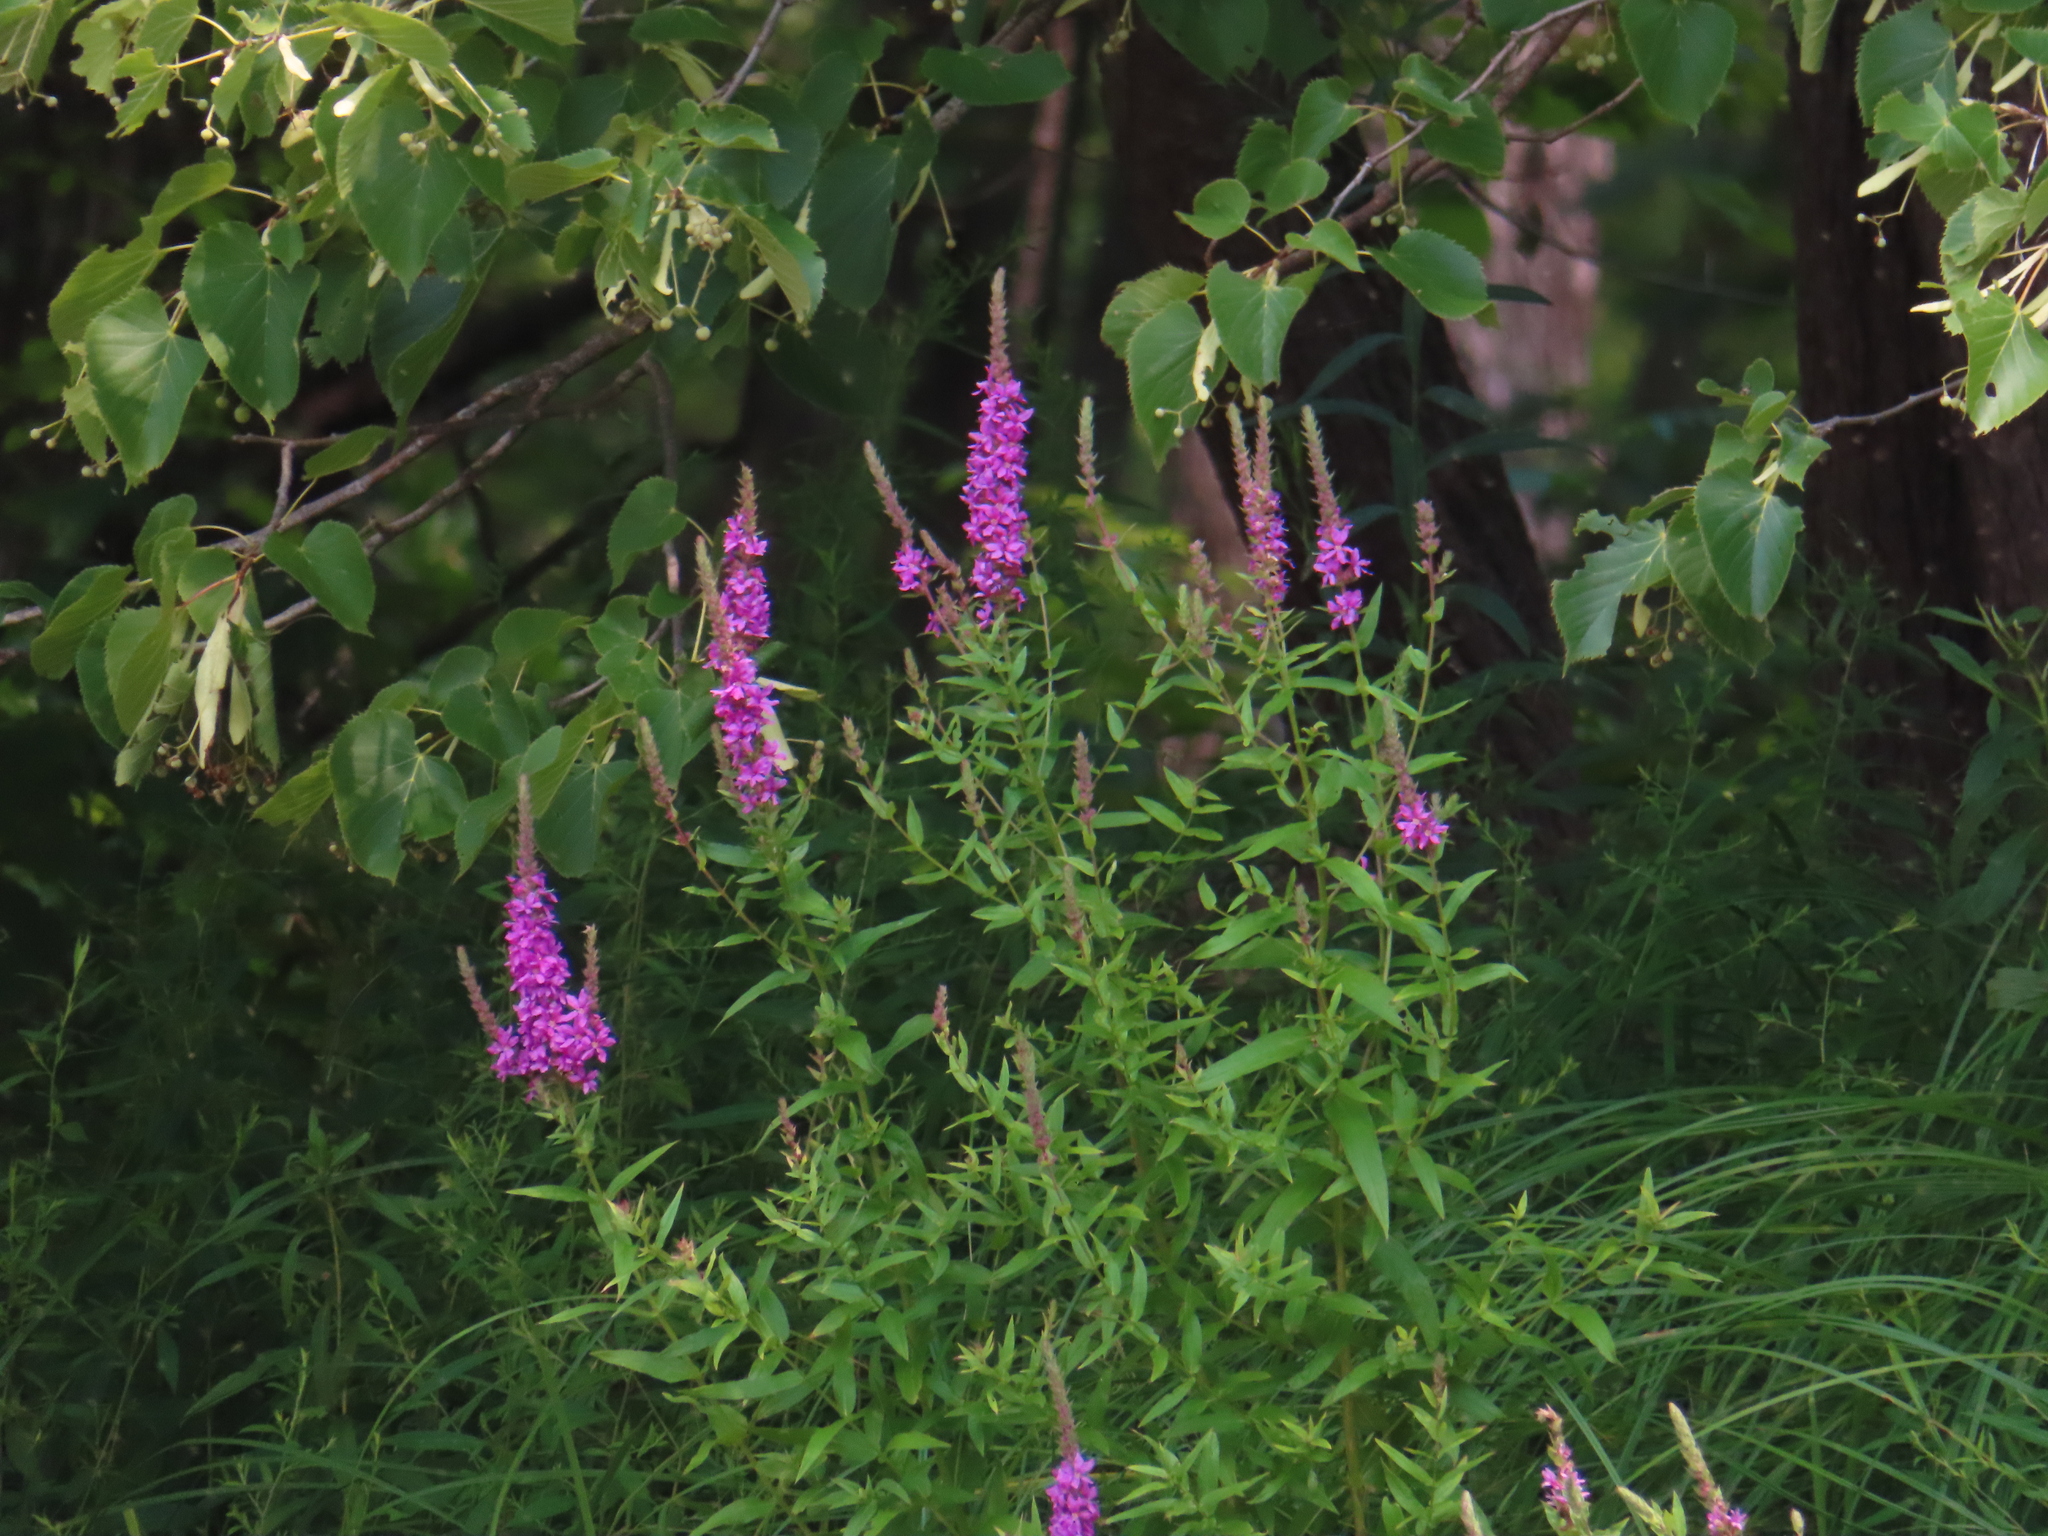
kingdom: Plantae
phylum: Tracheophyta
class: Magnoliopsida
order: Myrtales
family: Lythraceae
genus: Lythrum
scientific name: Lythrum salicaria
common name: Purple loosestrife
